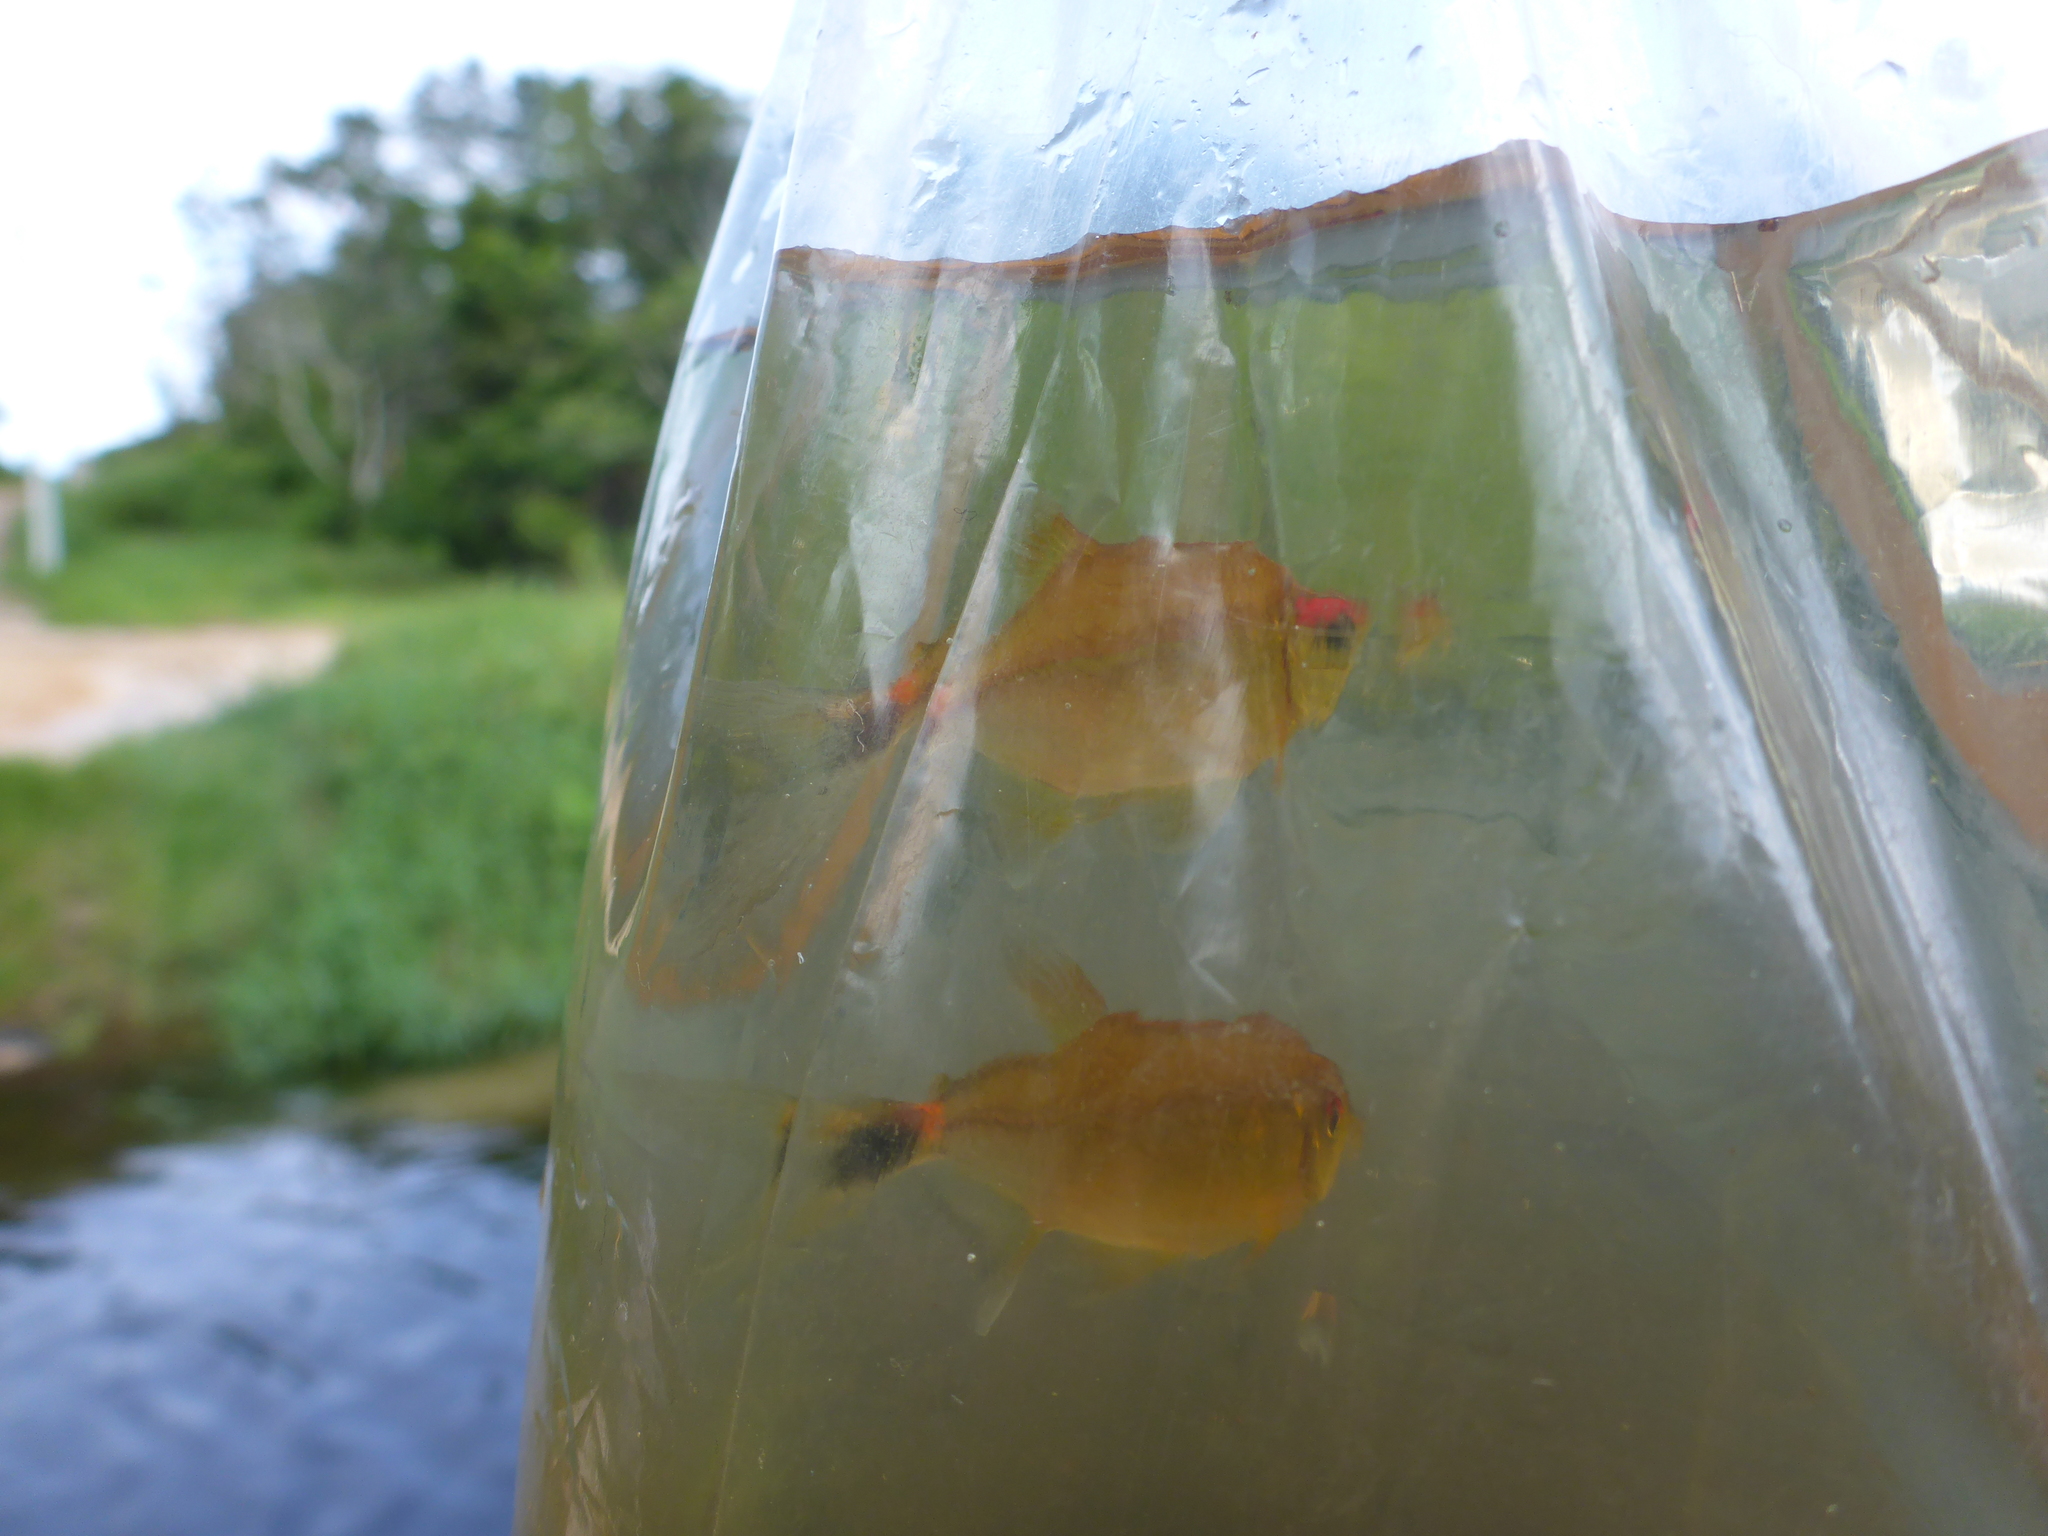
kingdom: Animalia
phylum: Chordata
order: Characiformes
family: Characidae
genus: Hemigrammus
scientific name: Hemigrammus ocellifer
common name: Beacon fish
